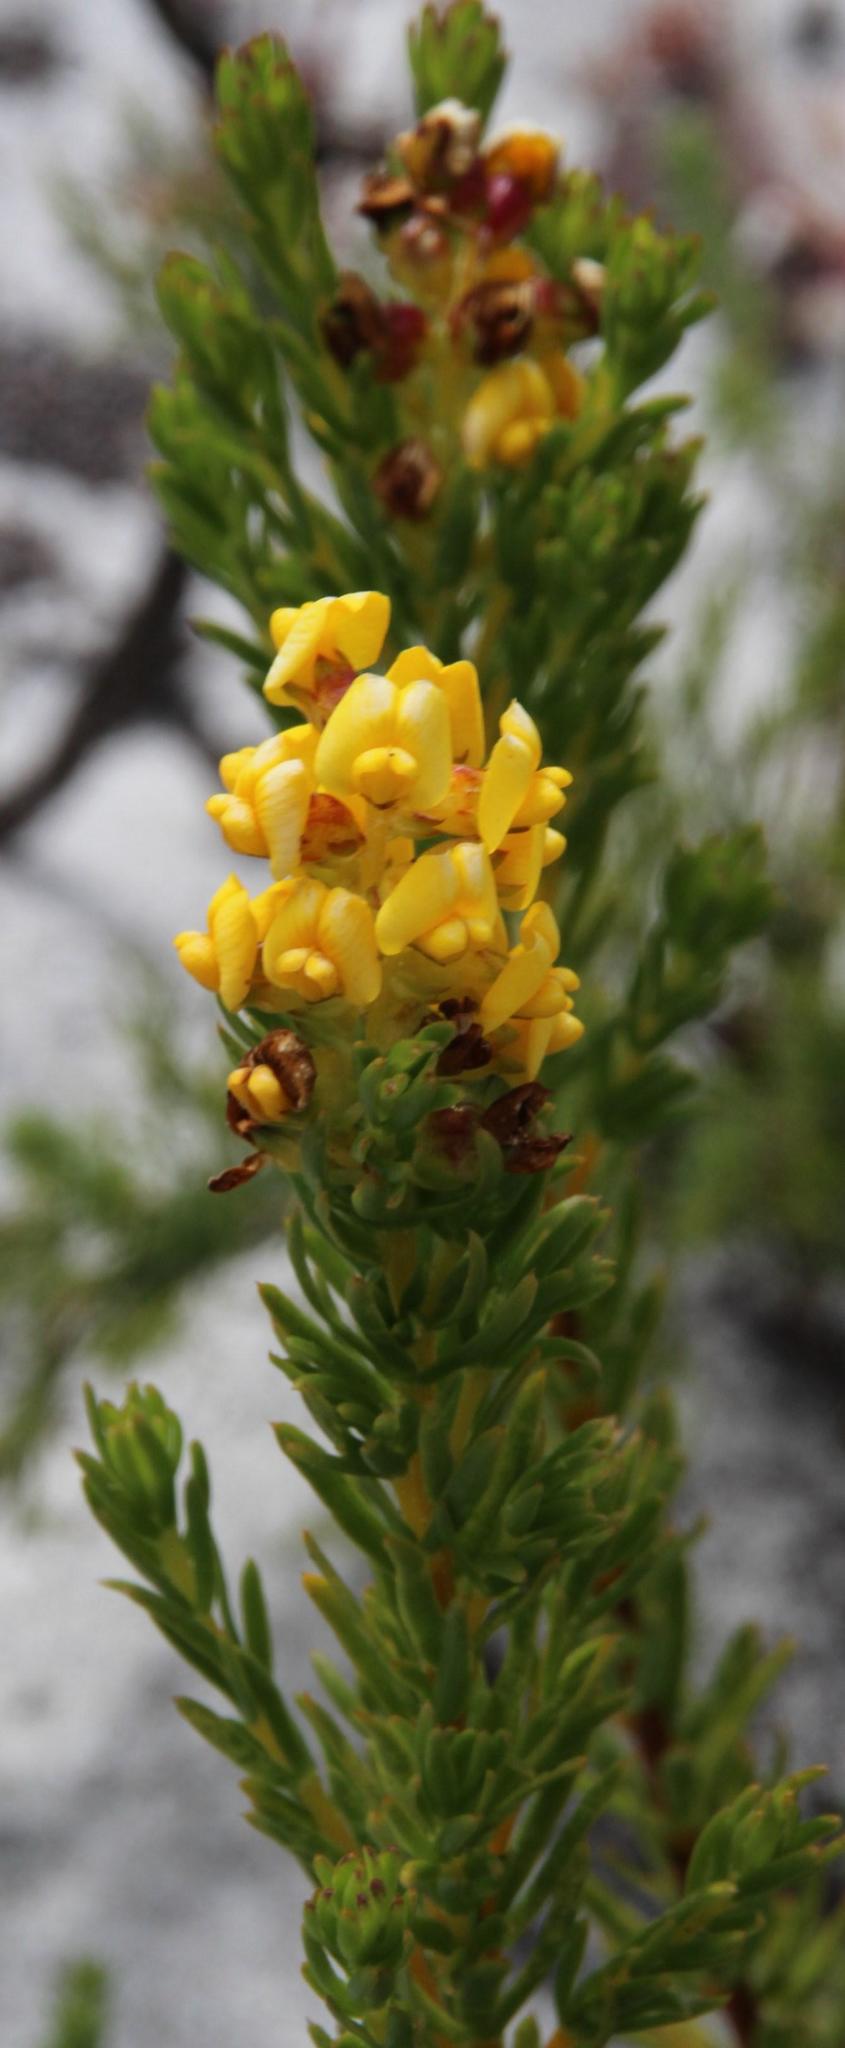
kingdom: Plantae
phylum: Tracheophyta
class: Magnoliopsida
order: Fabales
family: Fabaceae
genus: Aspalathus
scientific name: Aspalathus callosa
